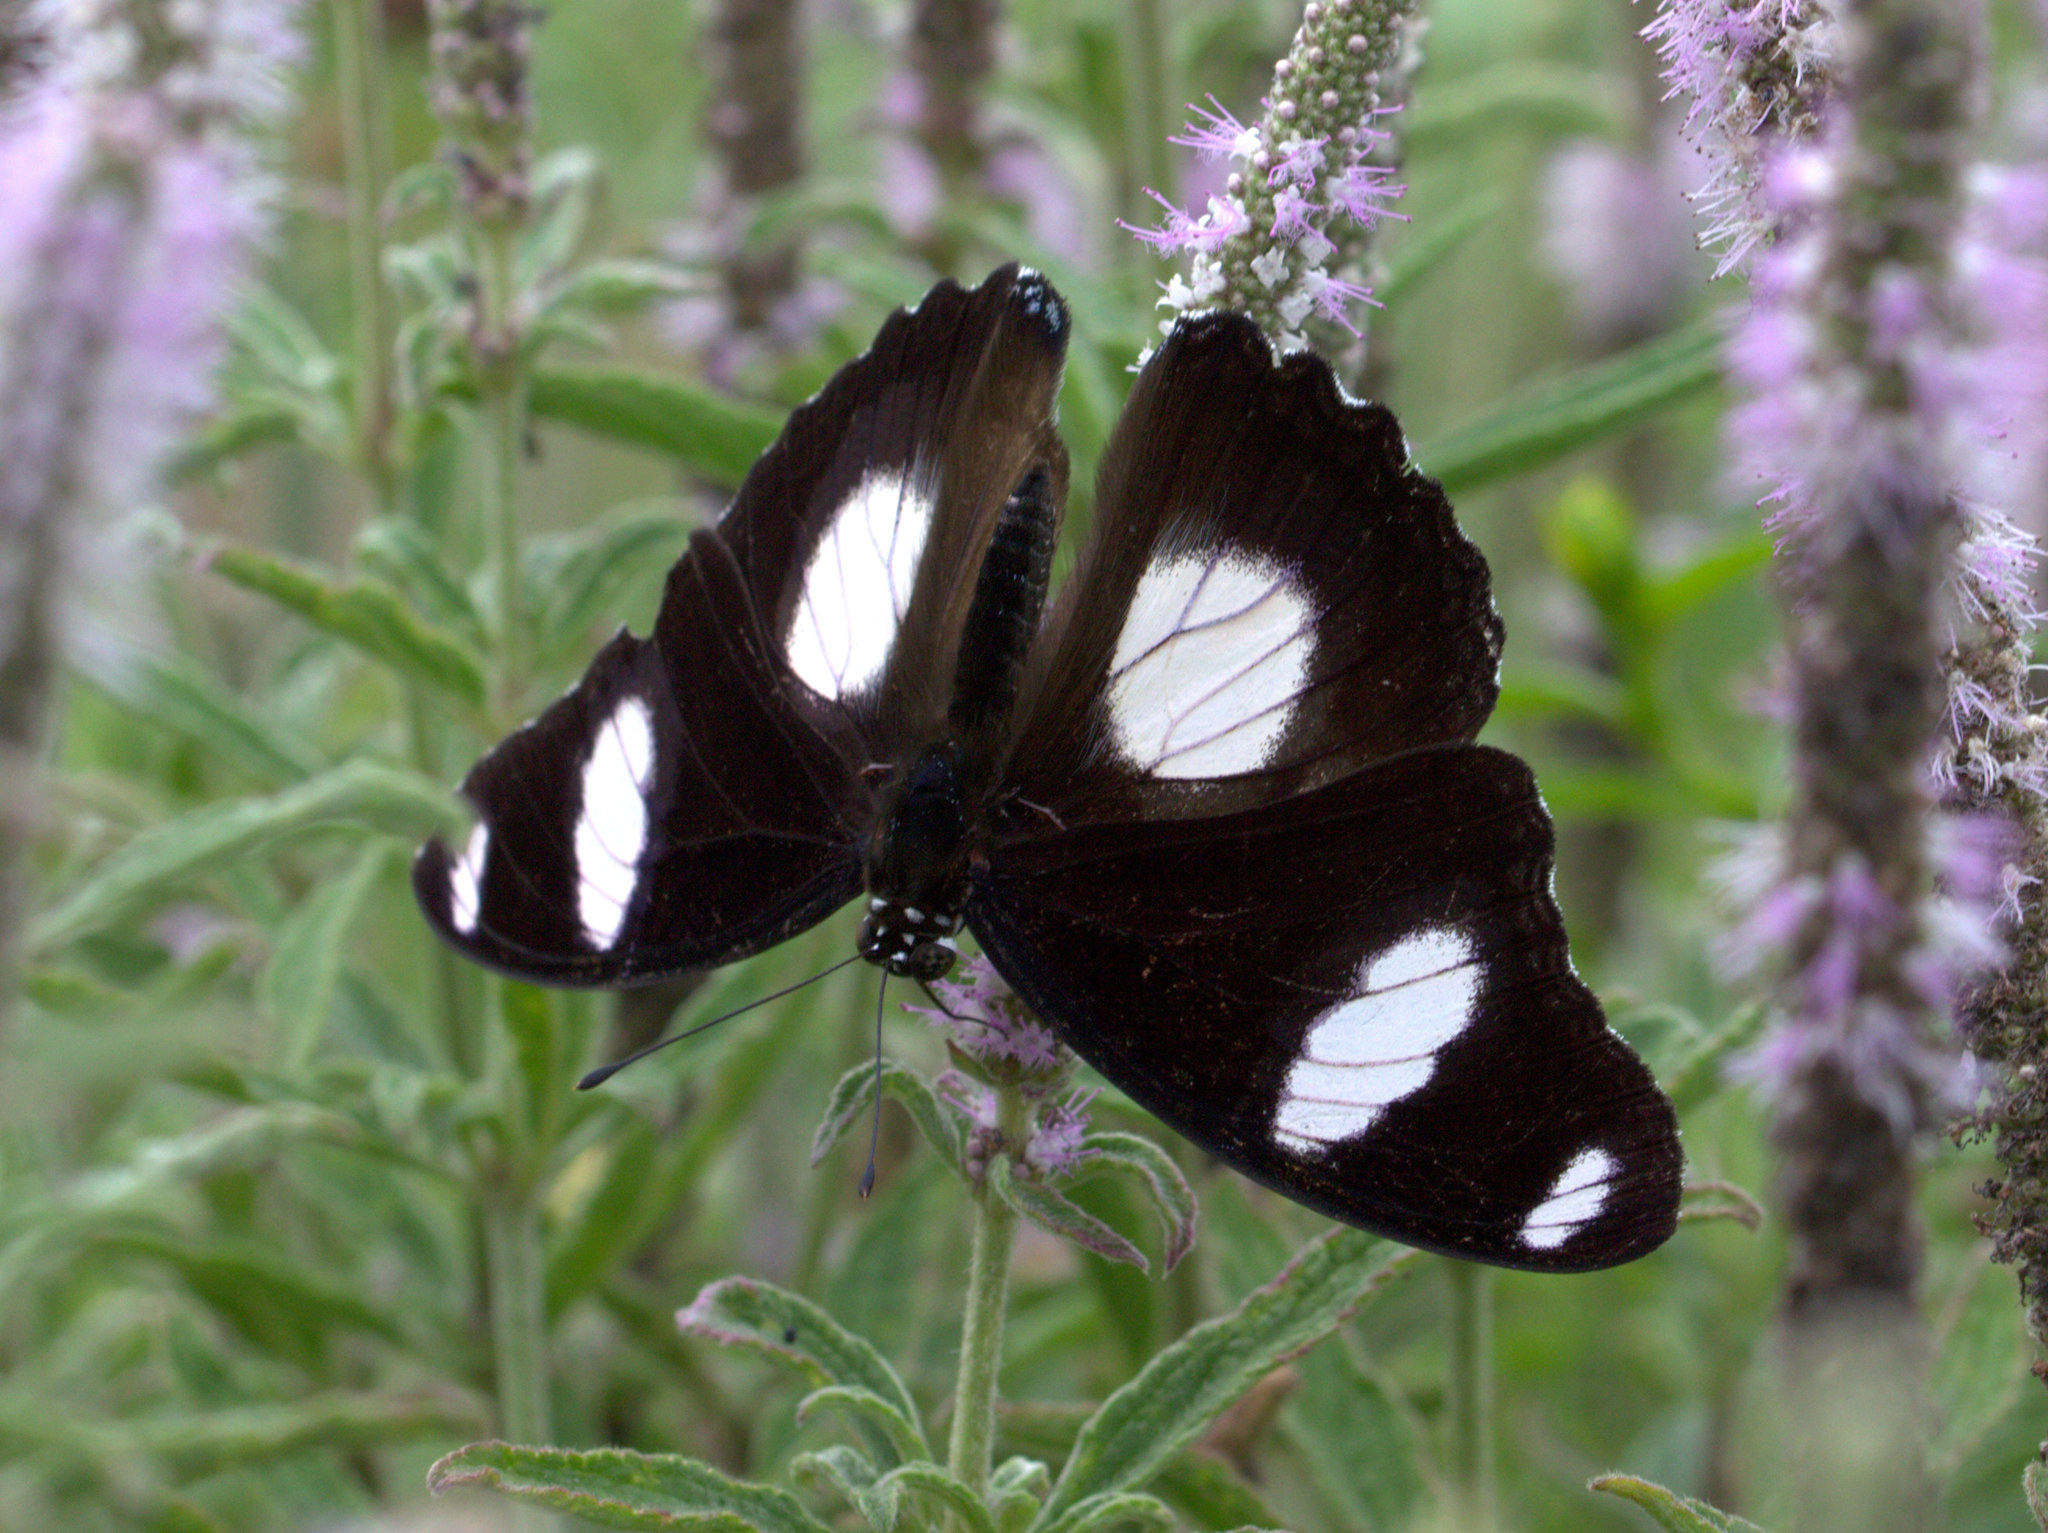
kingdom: Animalia
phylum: Arthropoda
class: Insecta
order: Lepidoptera
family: Nymphalidae
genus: Hypolimnas
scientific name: Hypolimnas misippus
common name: False plain tiger
